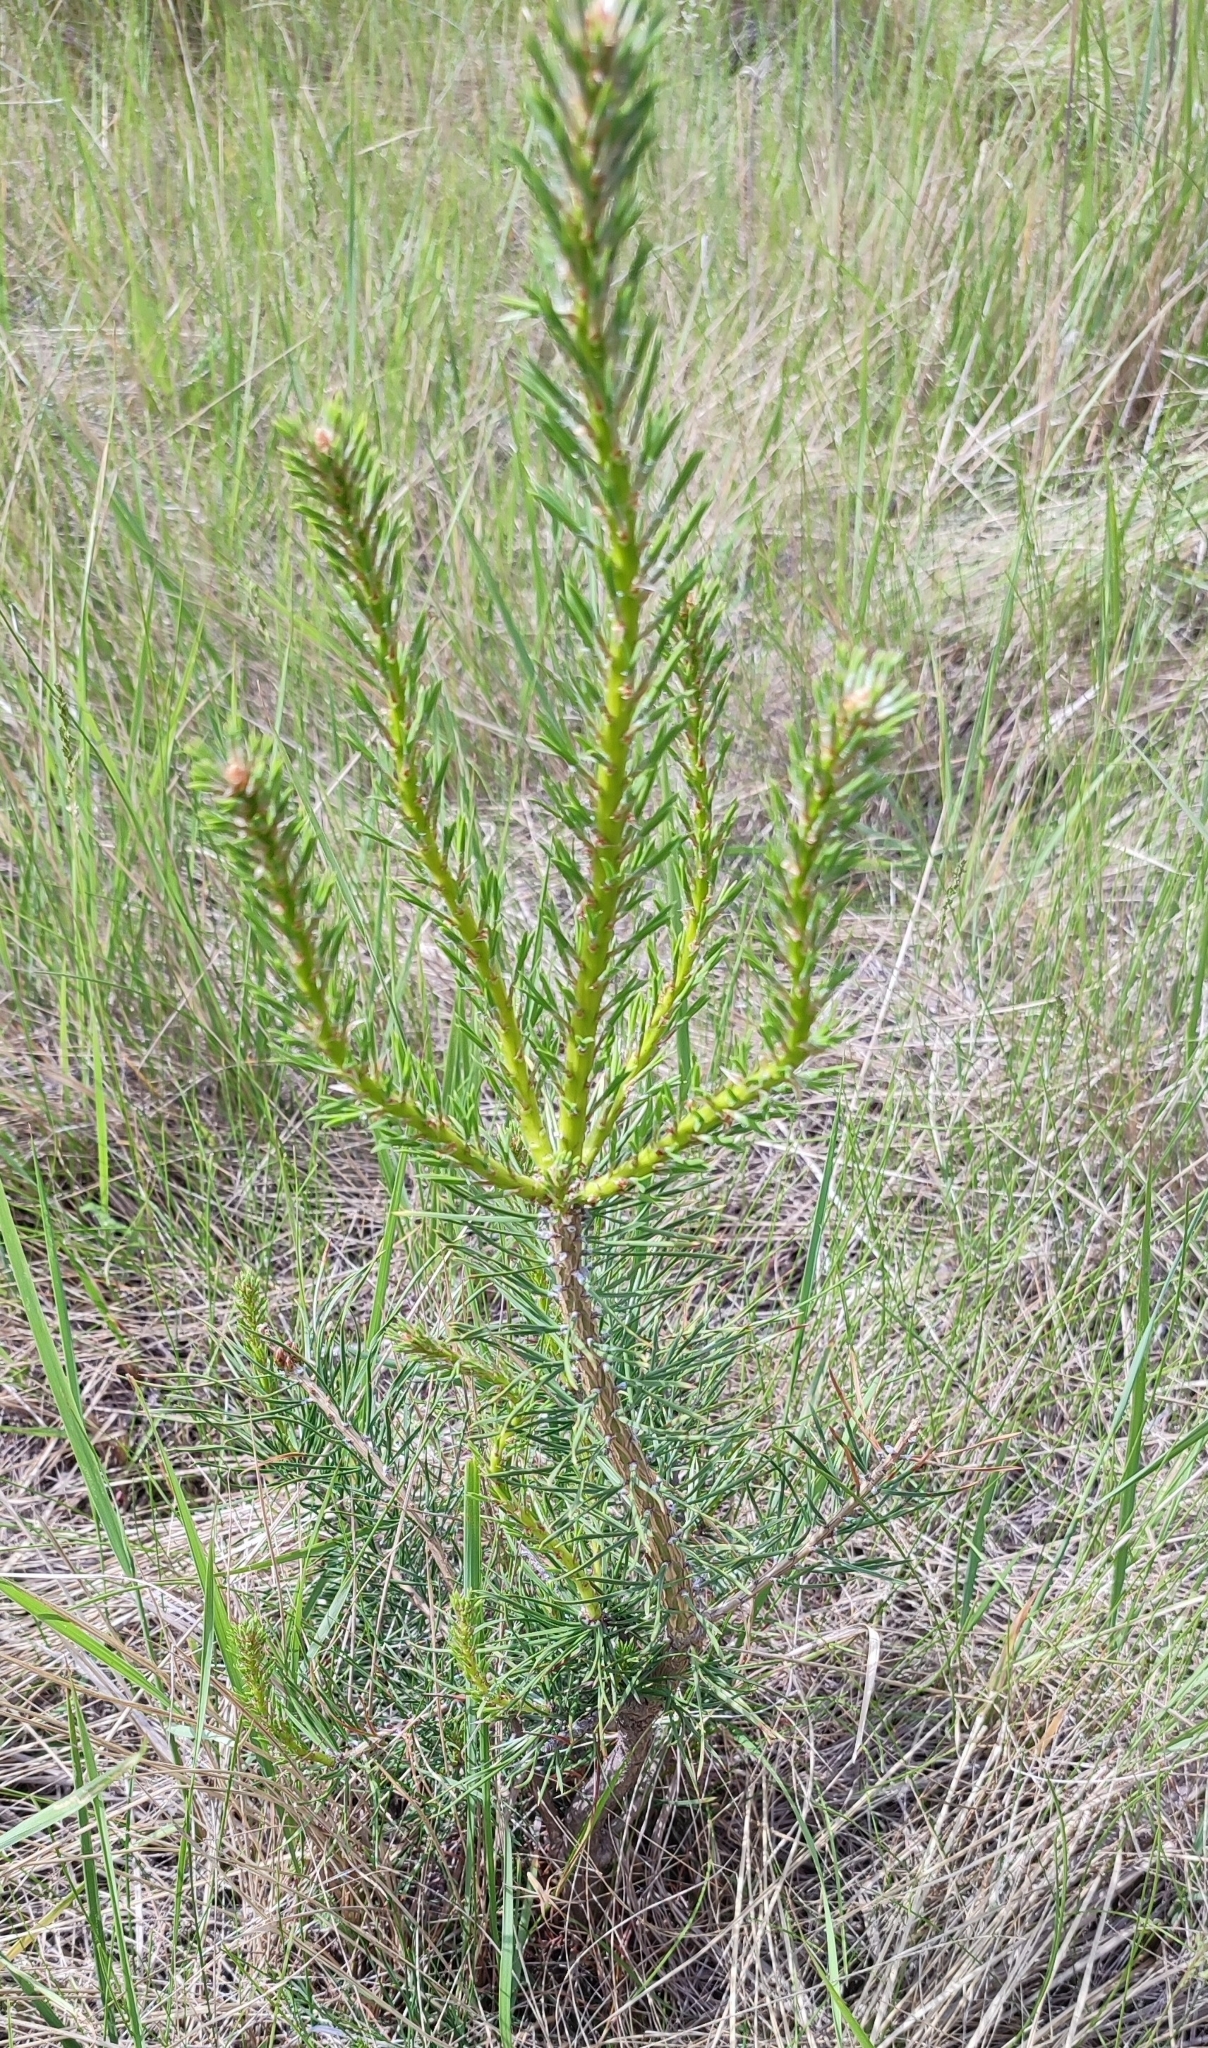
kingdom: Plantae
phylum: Tracheophyta
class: Pinopsida
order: Pinales
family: Pinaceae
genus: Pinus
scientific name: Pinus sylvestris
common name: Scots pine
